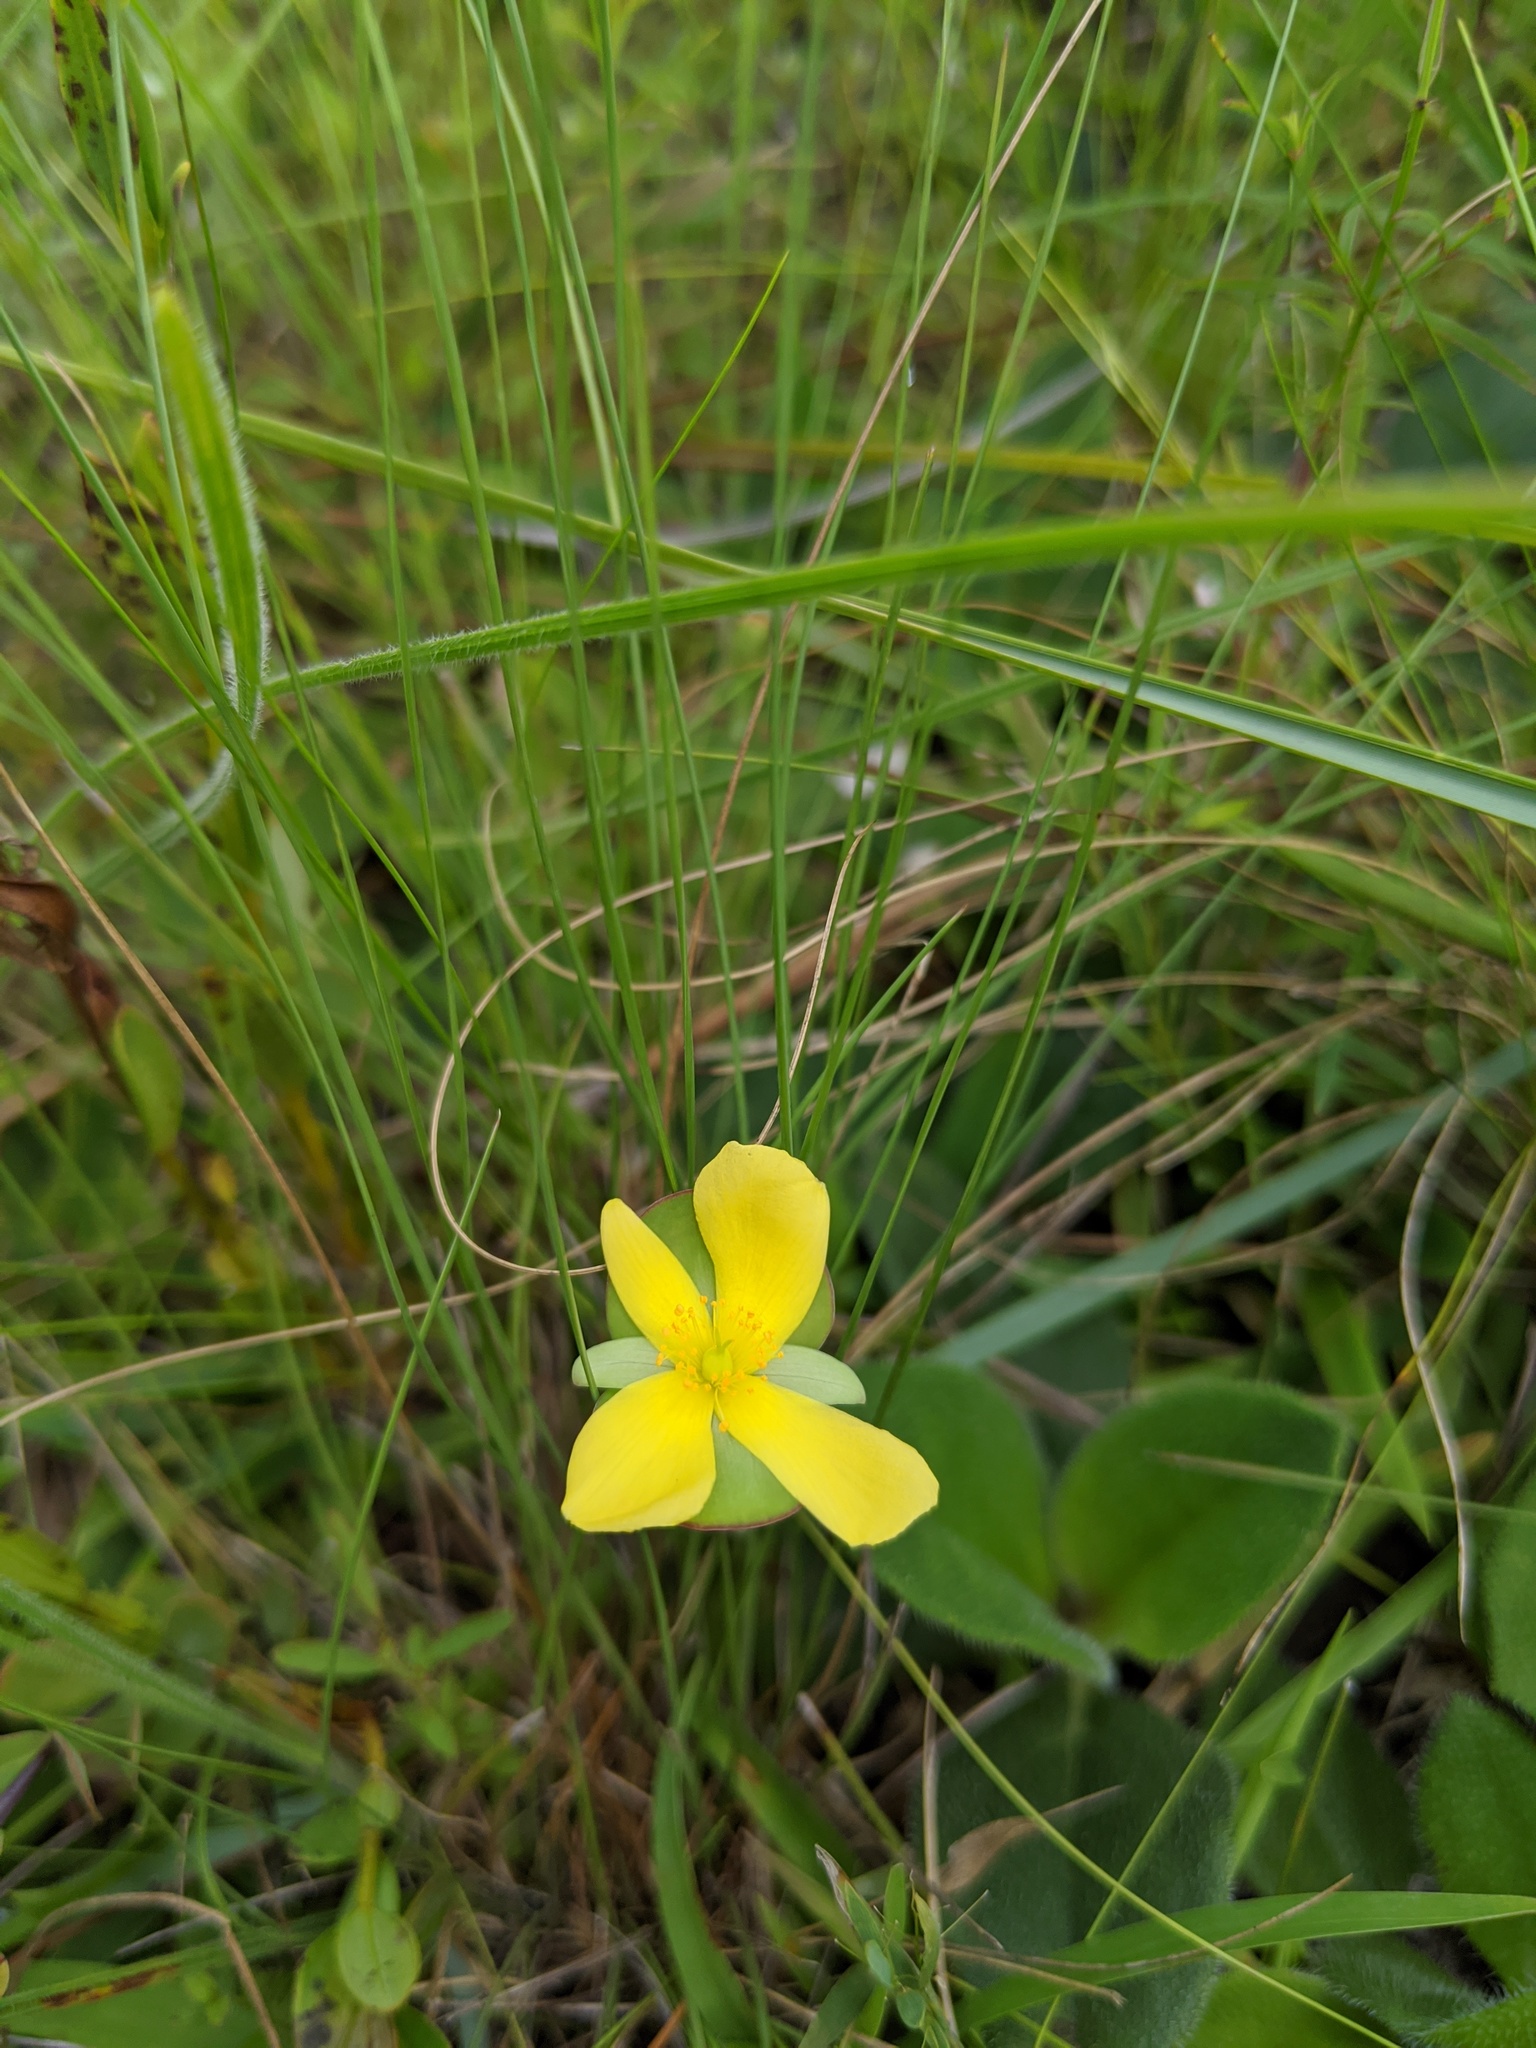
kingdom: Plantae
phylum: Tracheophyta
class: Magnoliopsida
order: Malpighiales
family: Hypericaceae
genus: Hypericum
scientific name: Hypericum tetrapetalum
